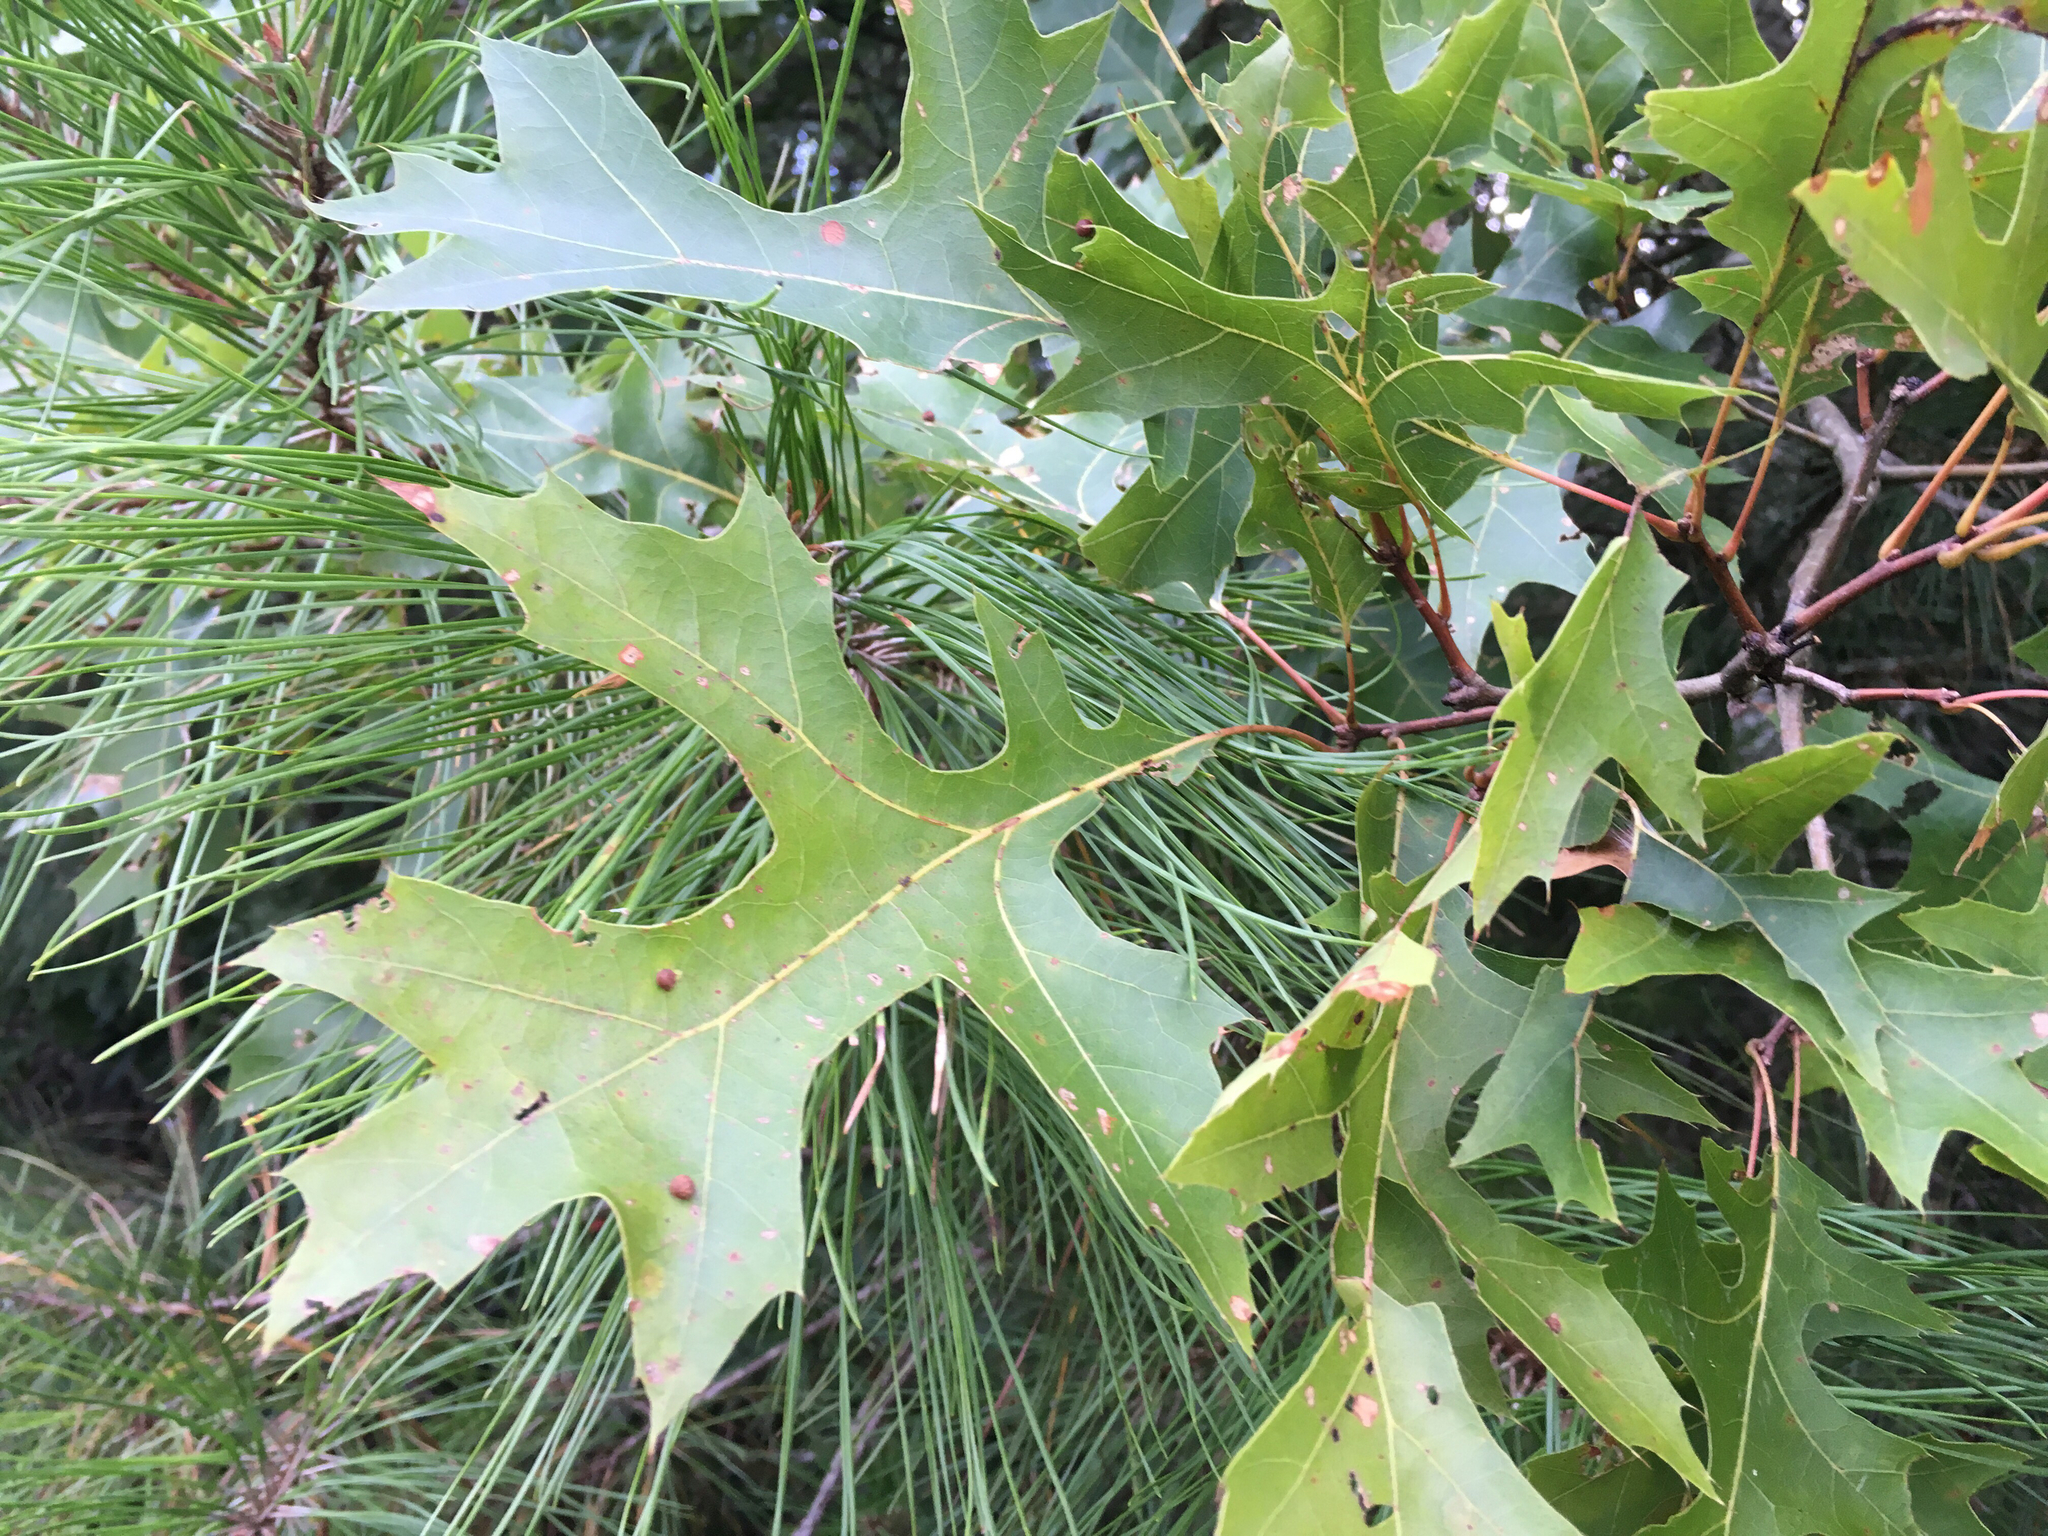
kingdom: Plantae
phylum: Tracheophyta
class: Magnoliopsida
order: Fagales
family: Fagaceae
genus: Quercus
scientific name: Quercus coccinea
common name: Scarlet oak
